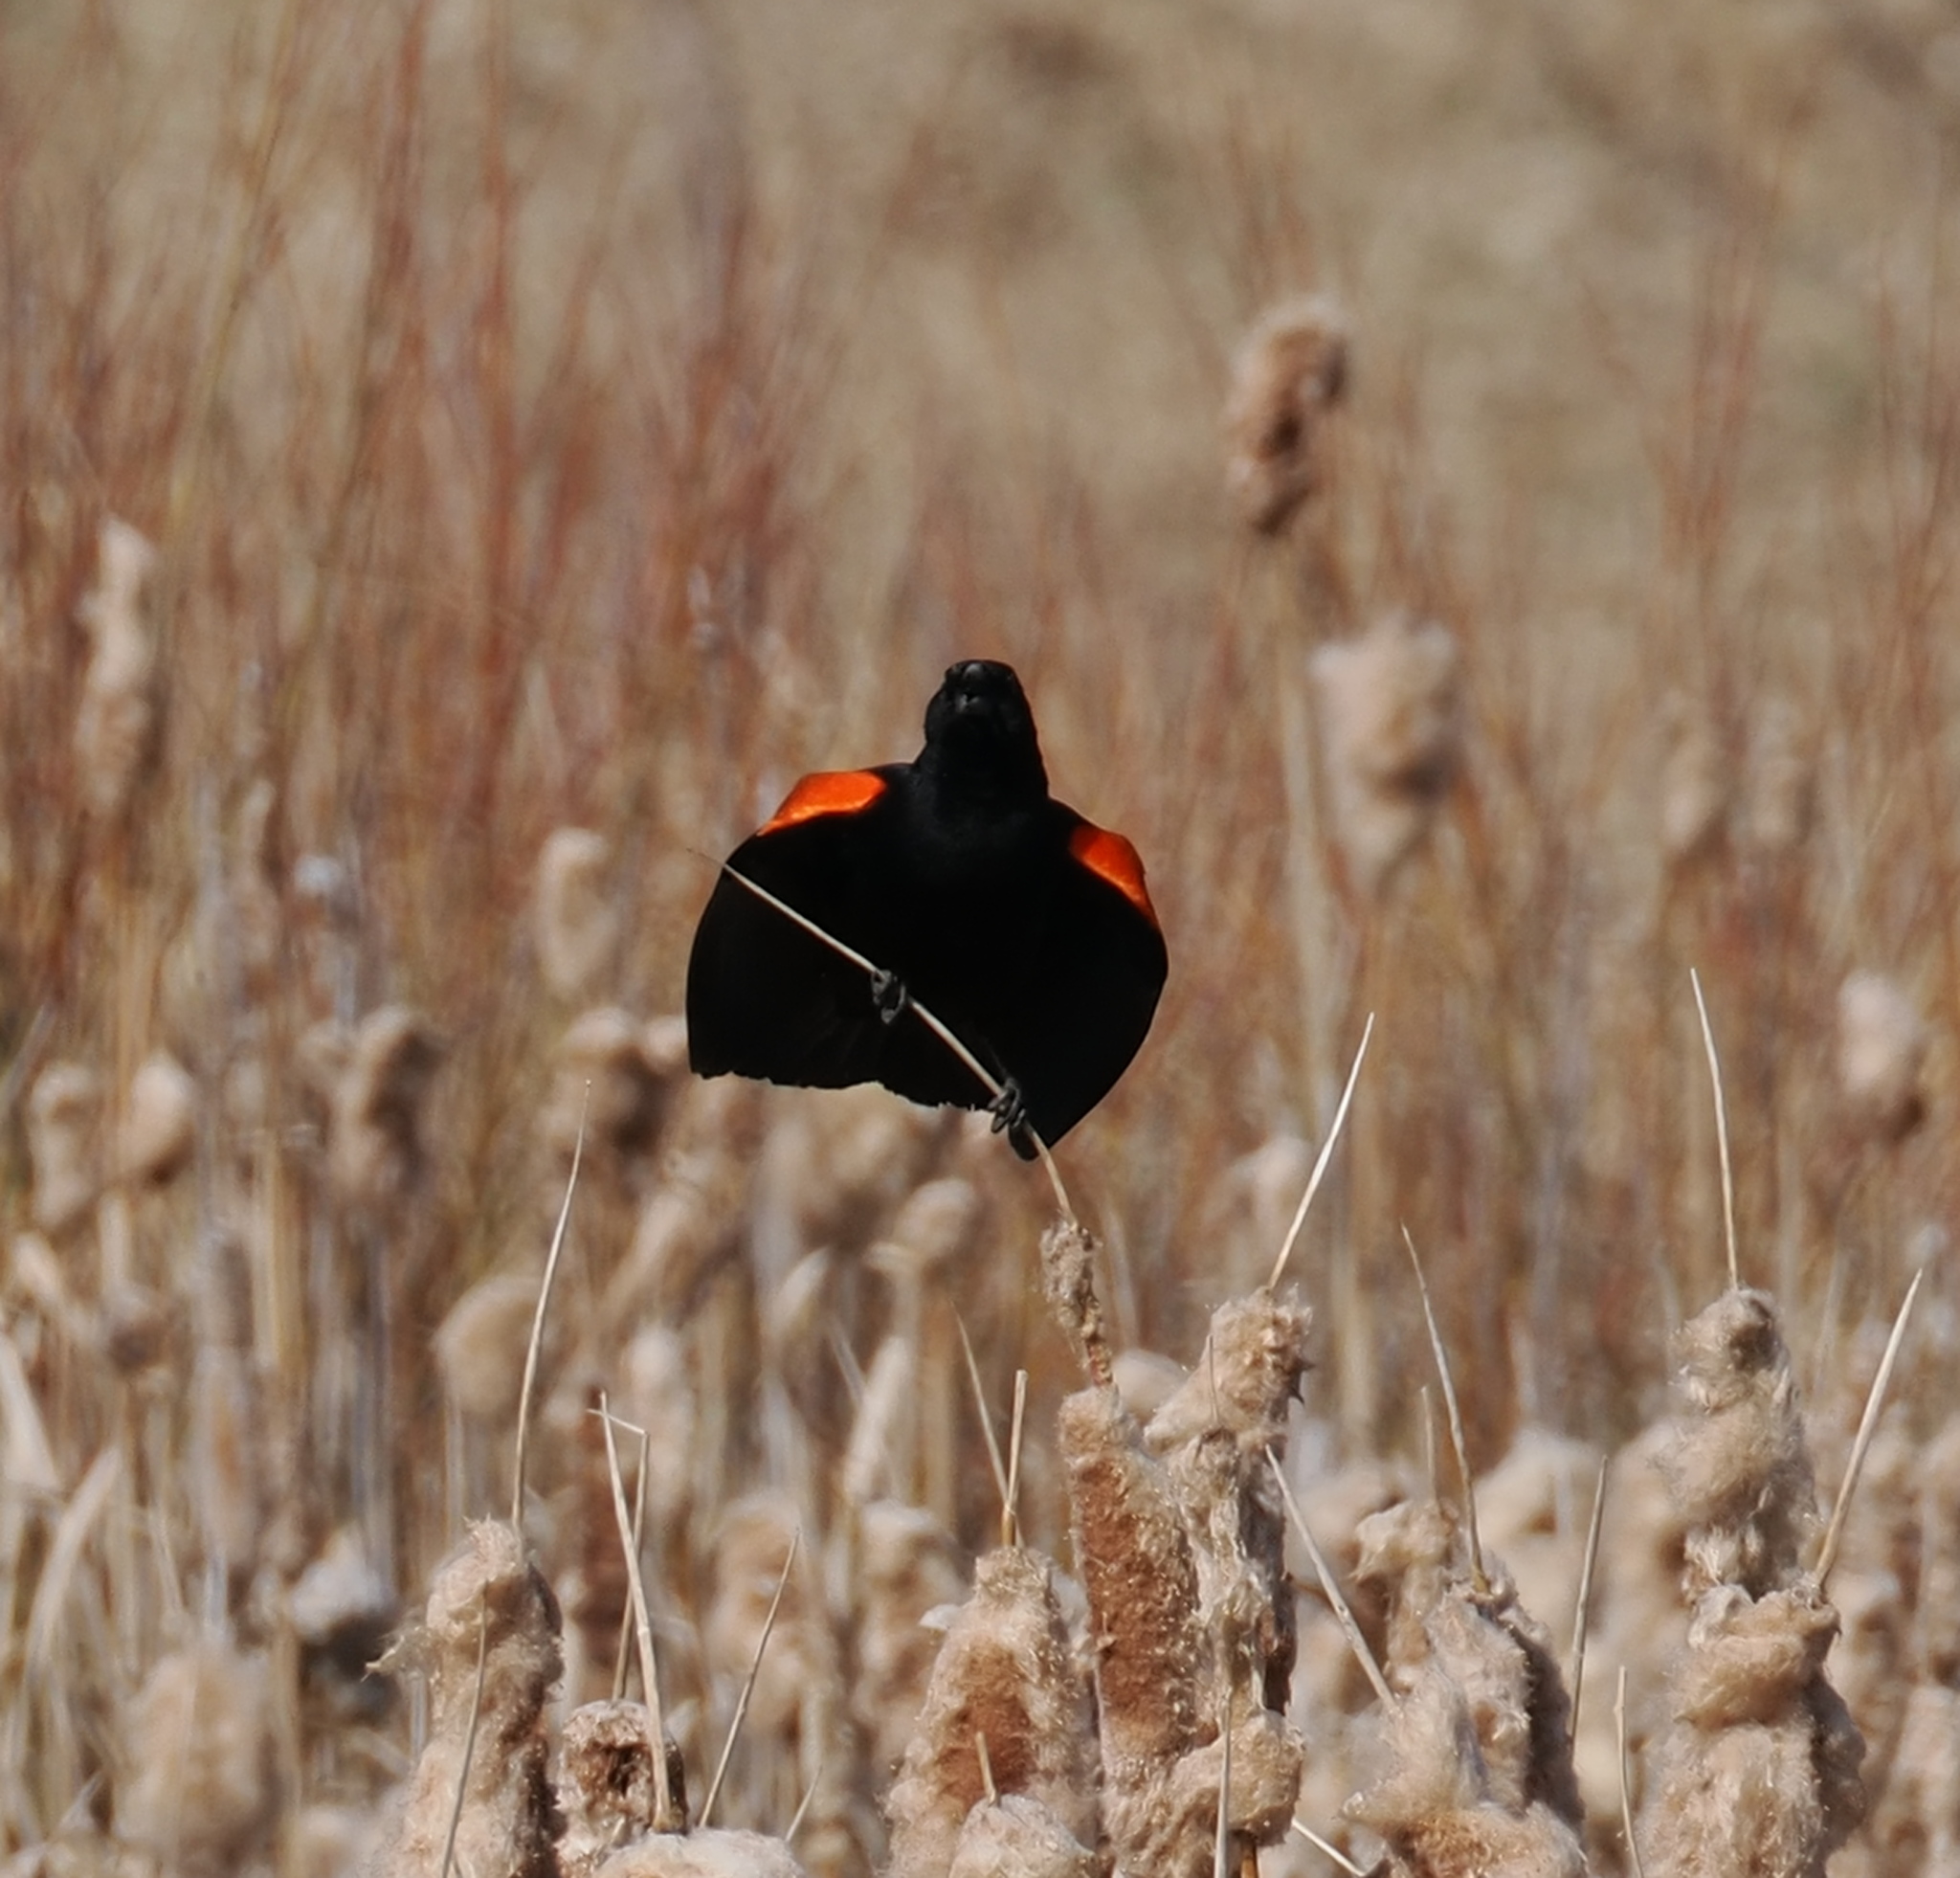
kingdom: Animalia
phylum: Chordata
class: Aves
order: Passeriformes
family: Icteridae
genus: Agelaius
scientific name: Agelaius phoeniceus
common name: Red-winged blackbird
